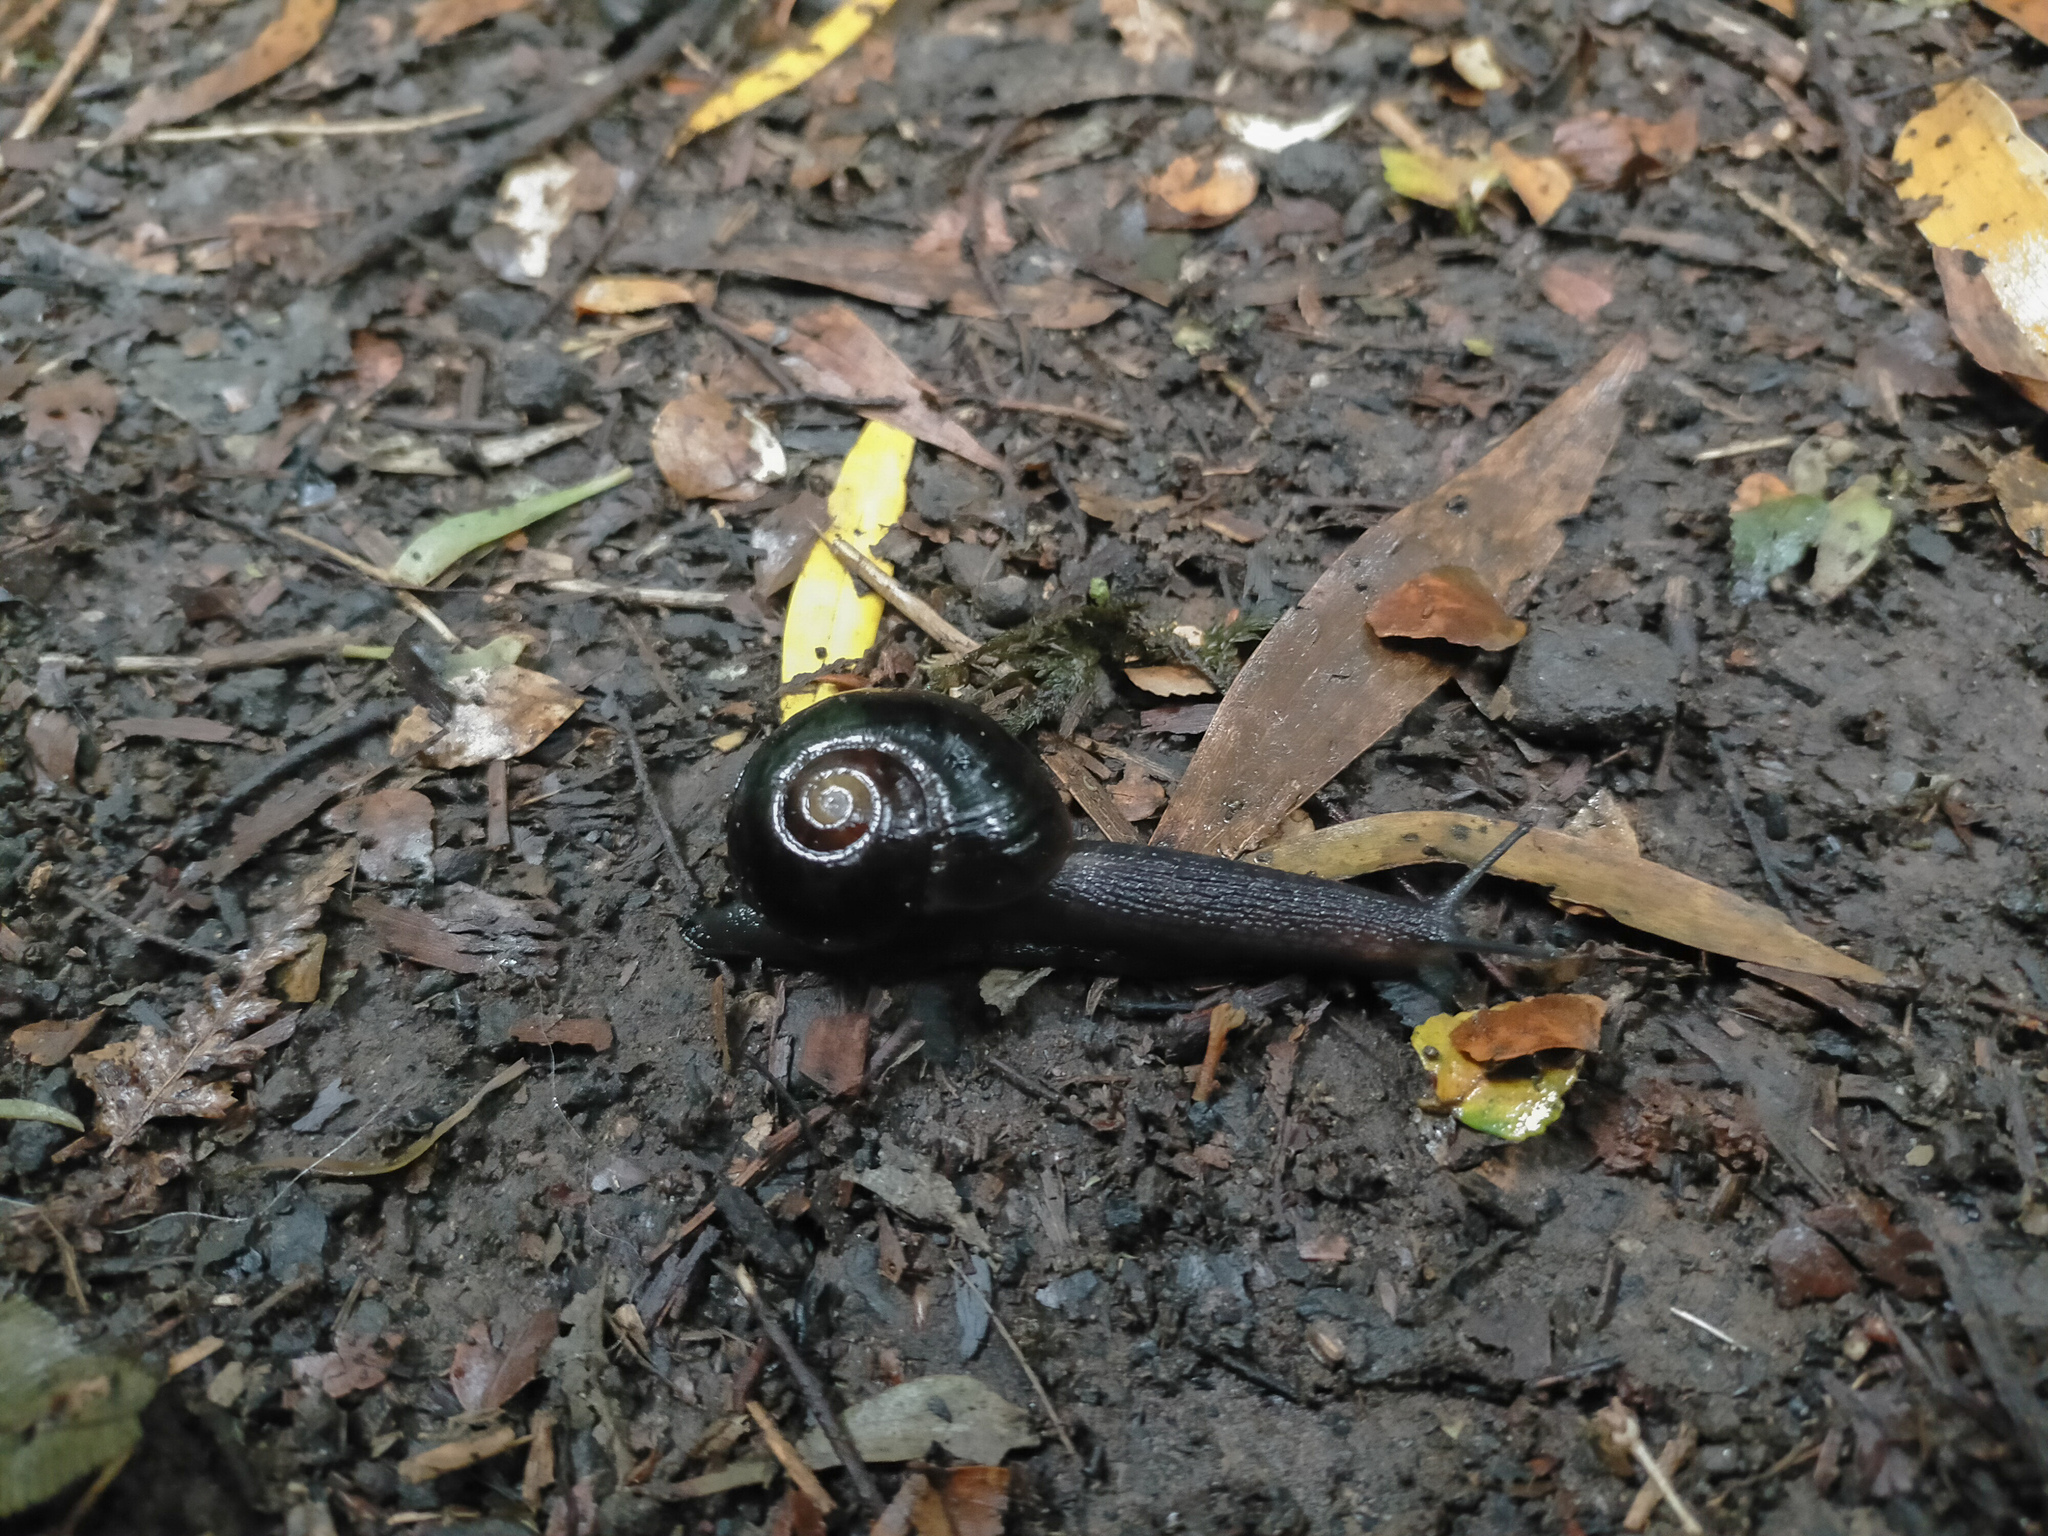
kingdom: Animalia
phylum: Mollusca
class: Gastropoda
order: Stylommatophora
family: Rhytididae
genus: Victaphanta
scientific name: Victaphanta compacta
